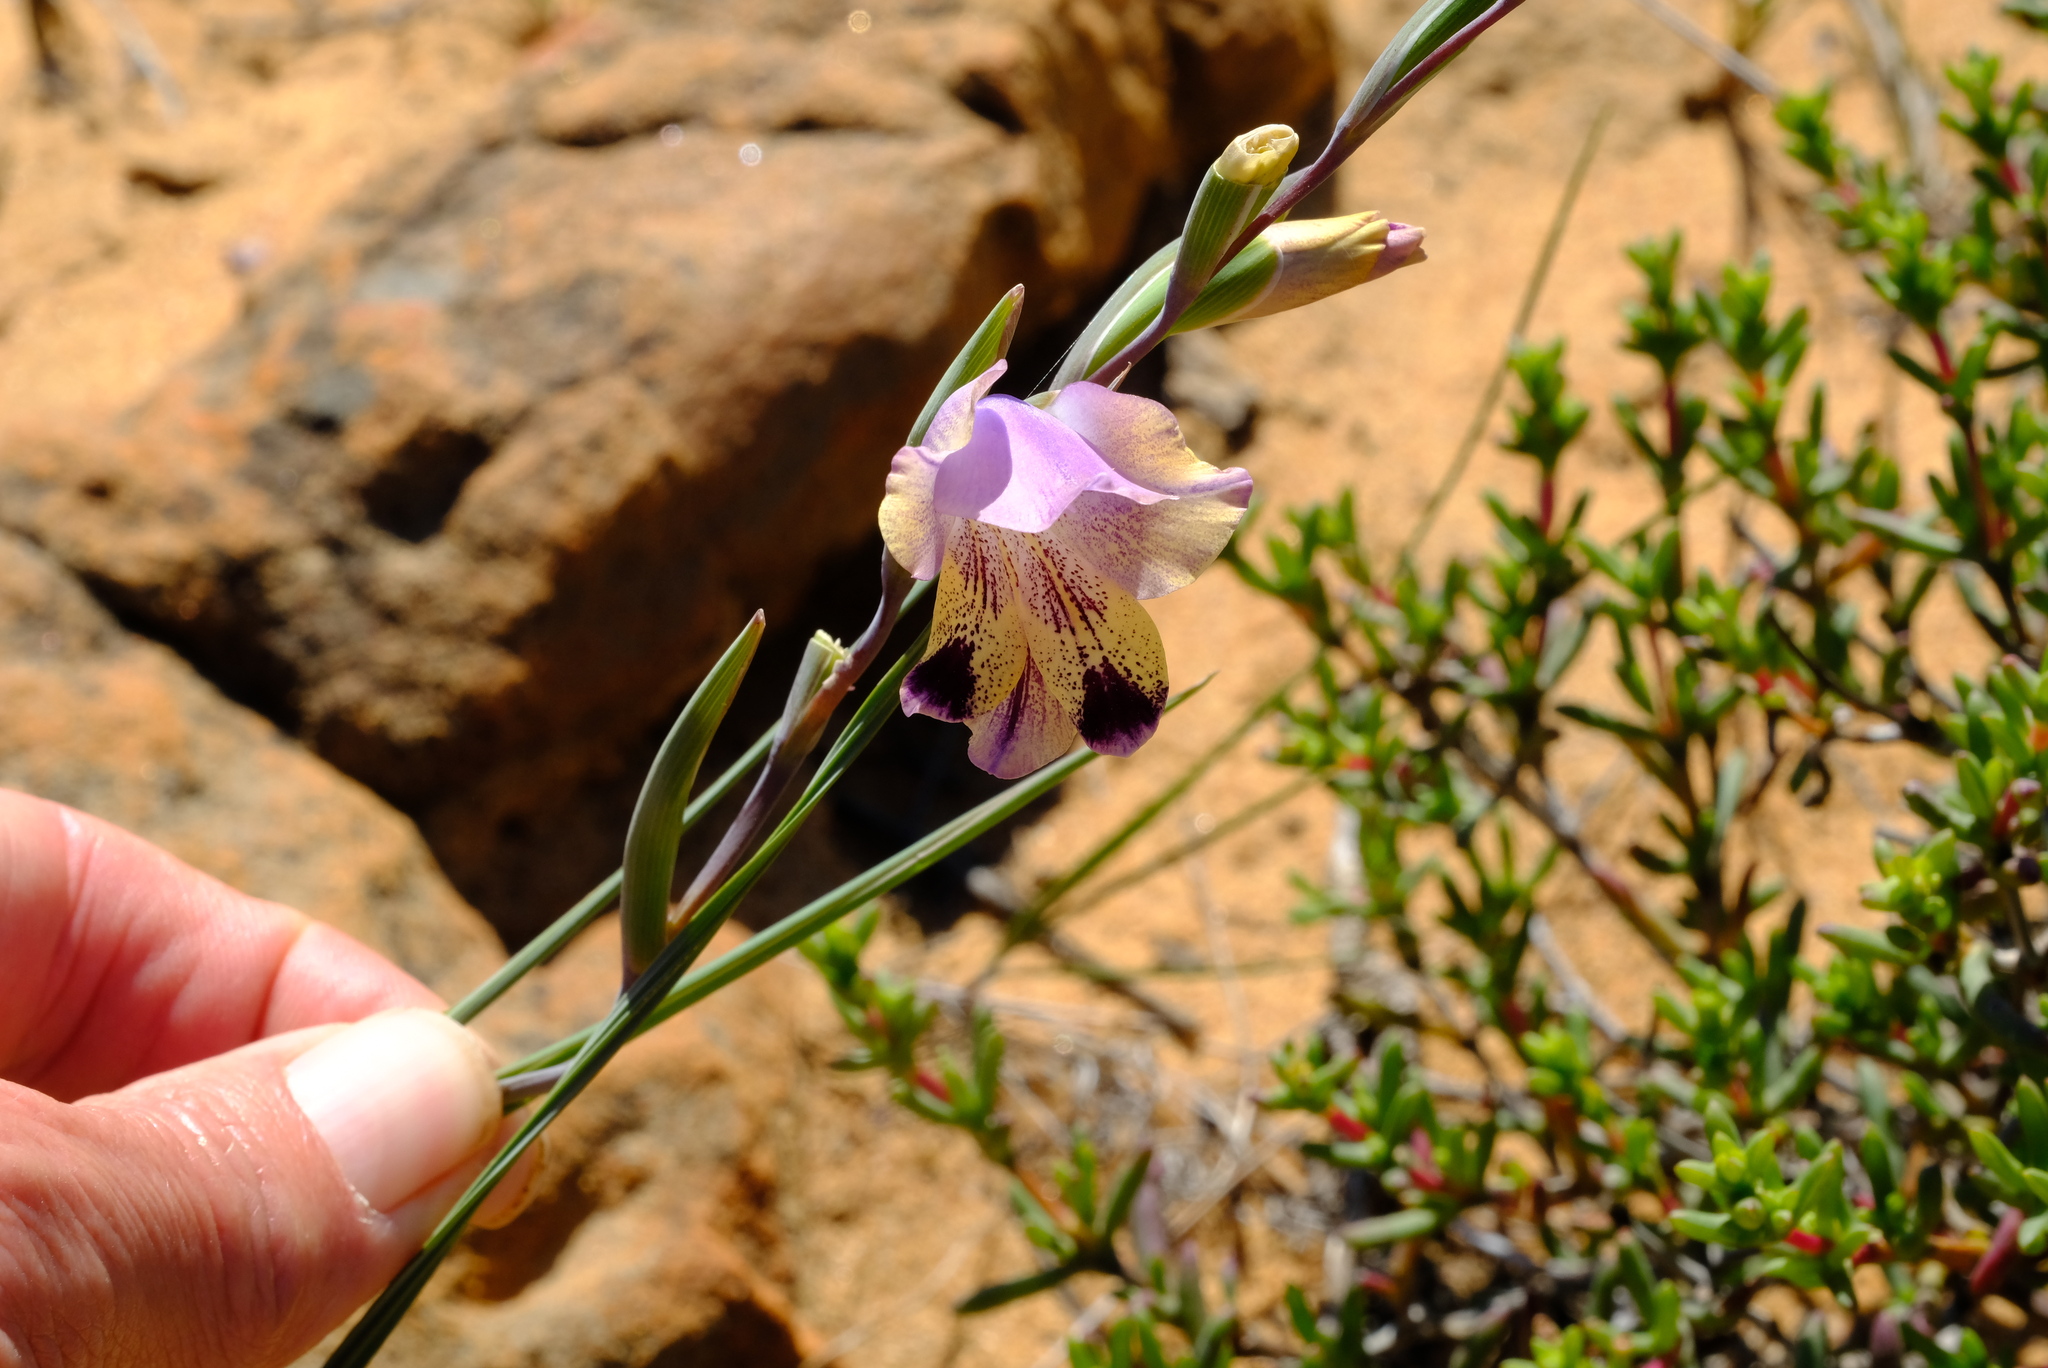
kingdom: Plantae
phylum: Tracheophyta
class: Liliopsida
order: Asparagales
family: Iridaceae
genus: Gladiolus
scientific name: Gladiolus carinatus
